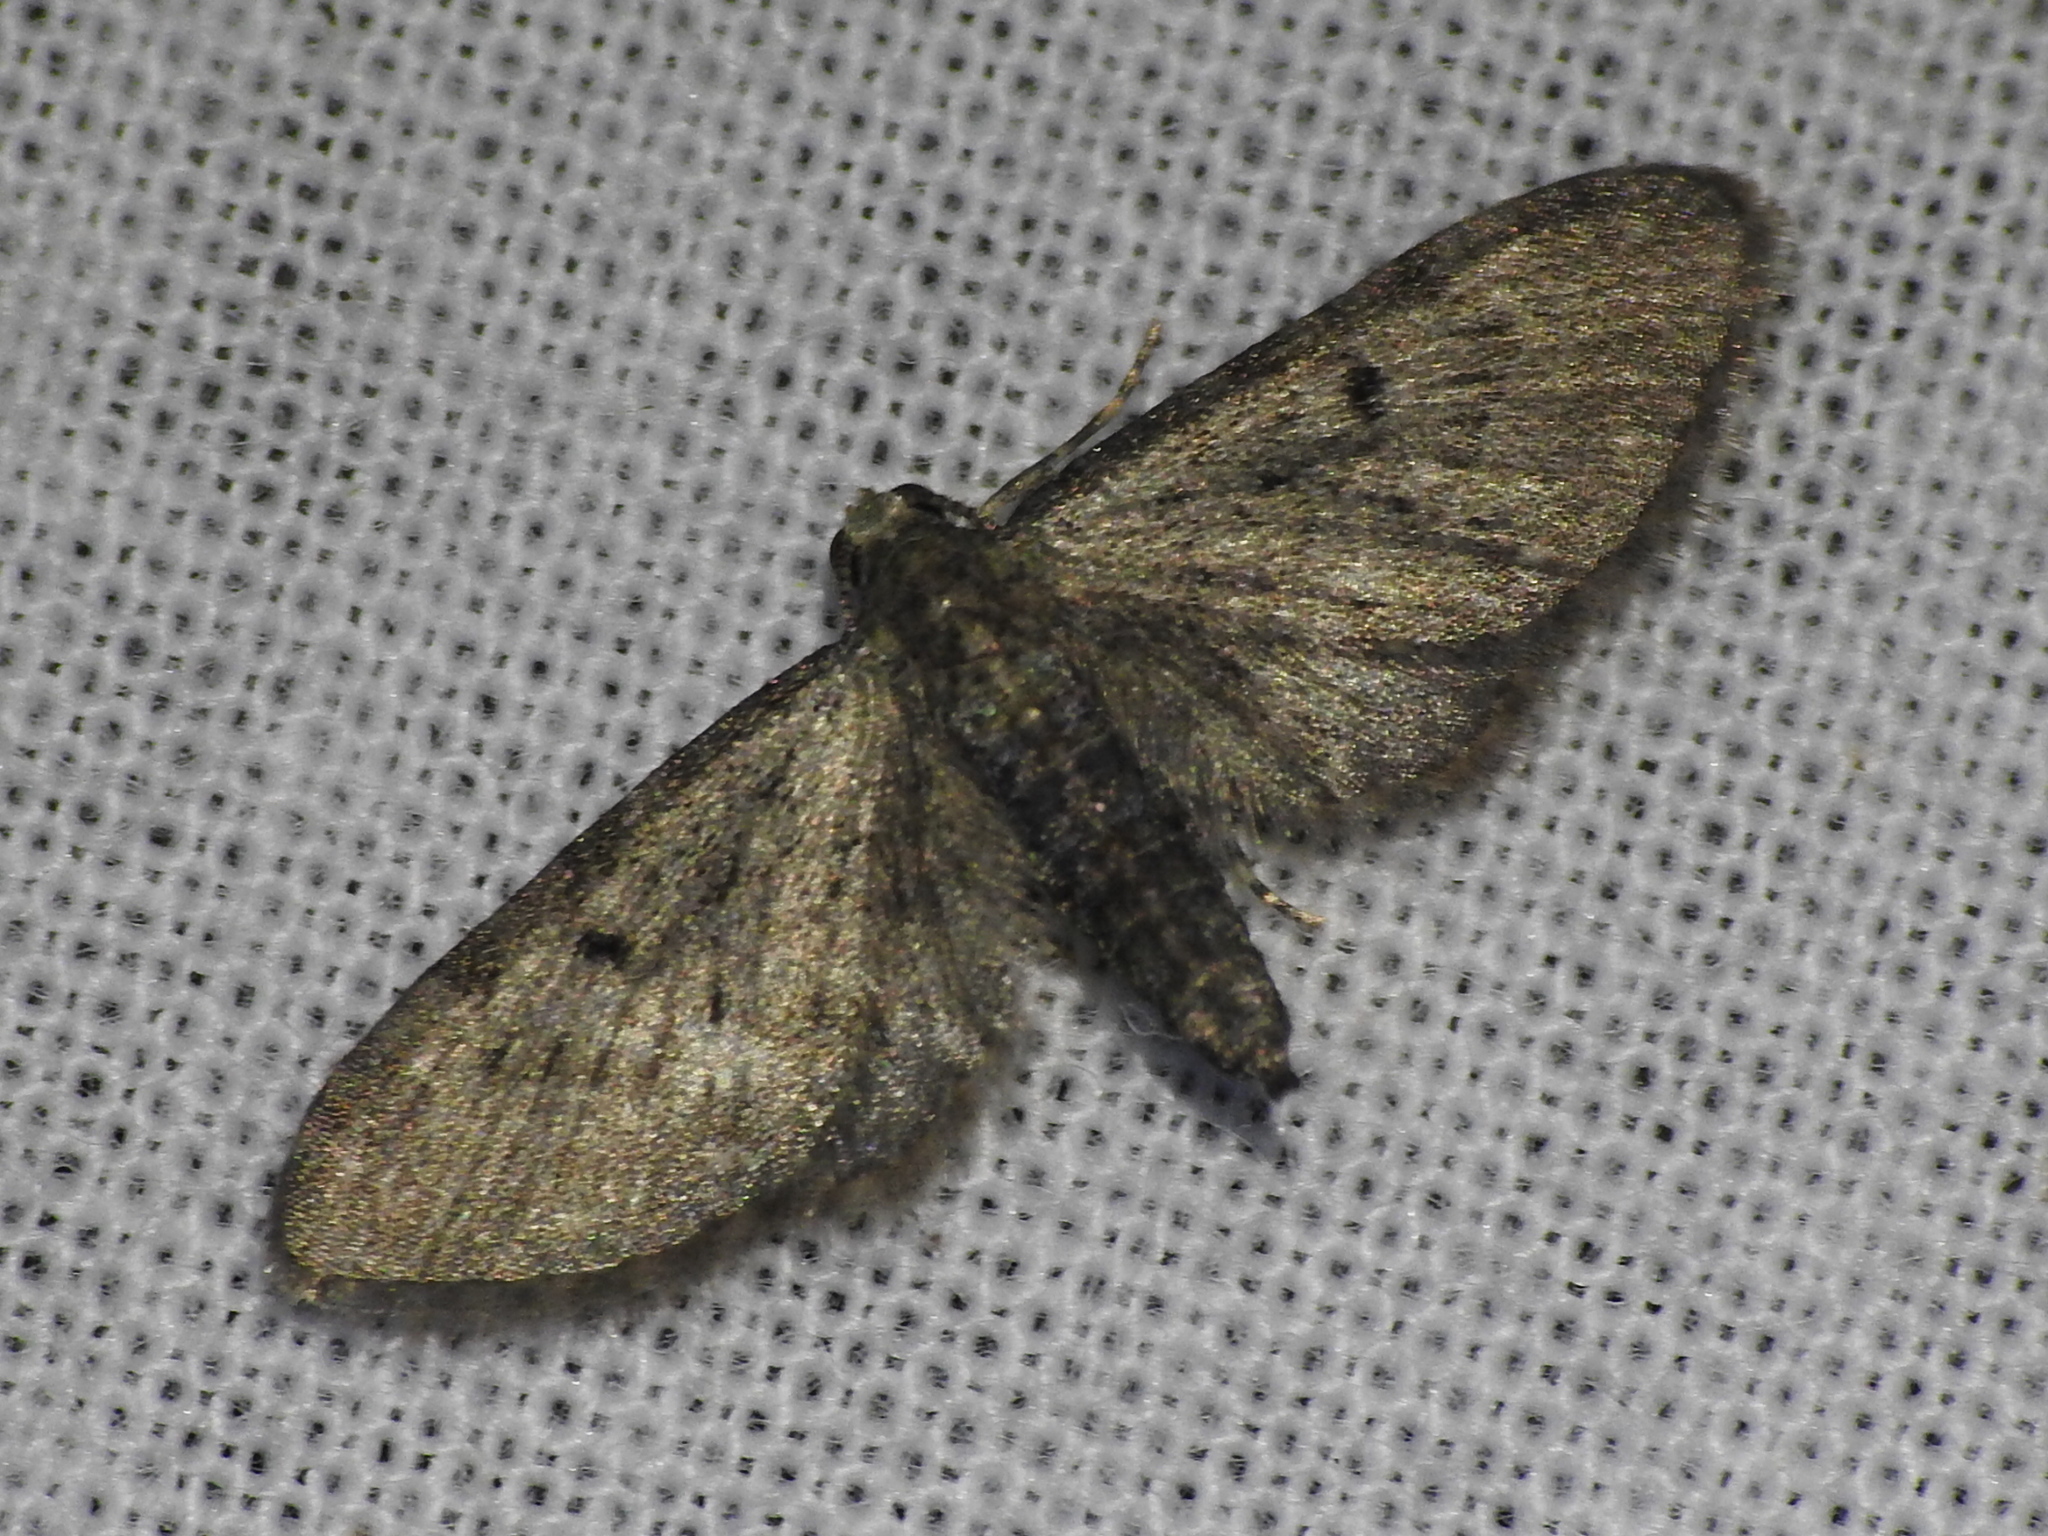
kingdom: Animalia
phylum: Arthropoda
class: Insecta
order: Lepidoptera
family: Geometridae
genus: Eupithecia
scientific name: Eupithecia miserulata
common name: Common eupithecia
